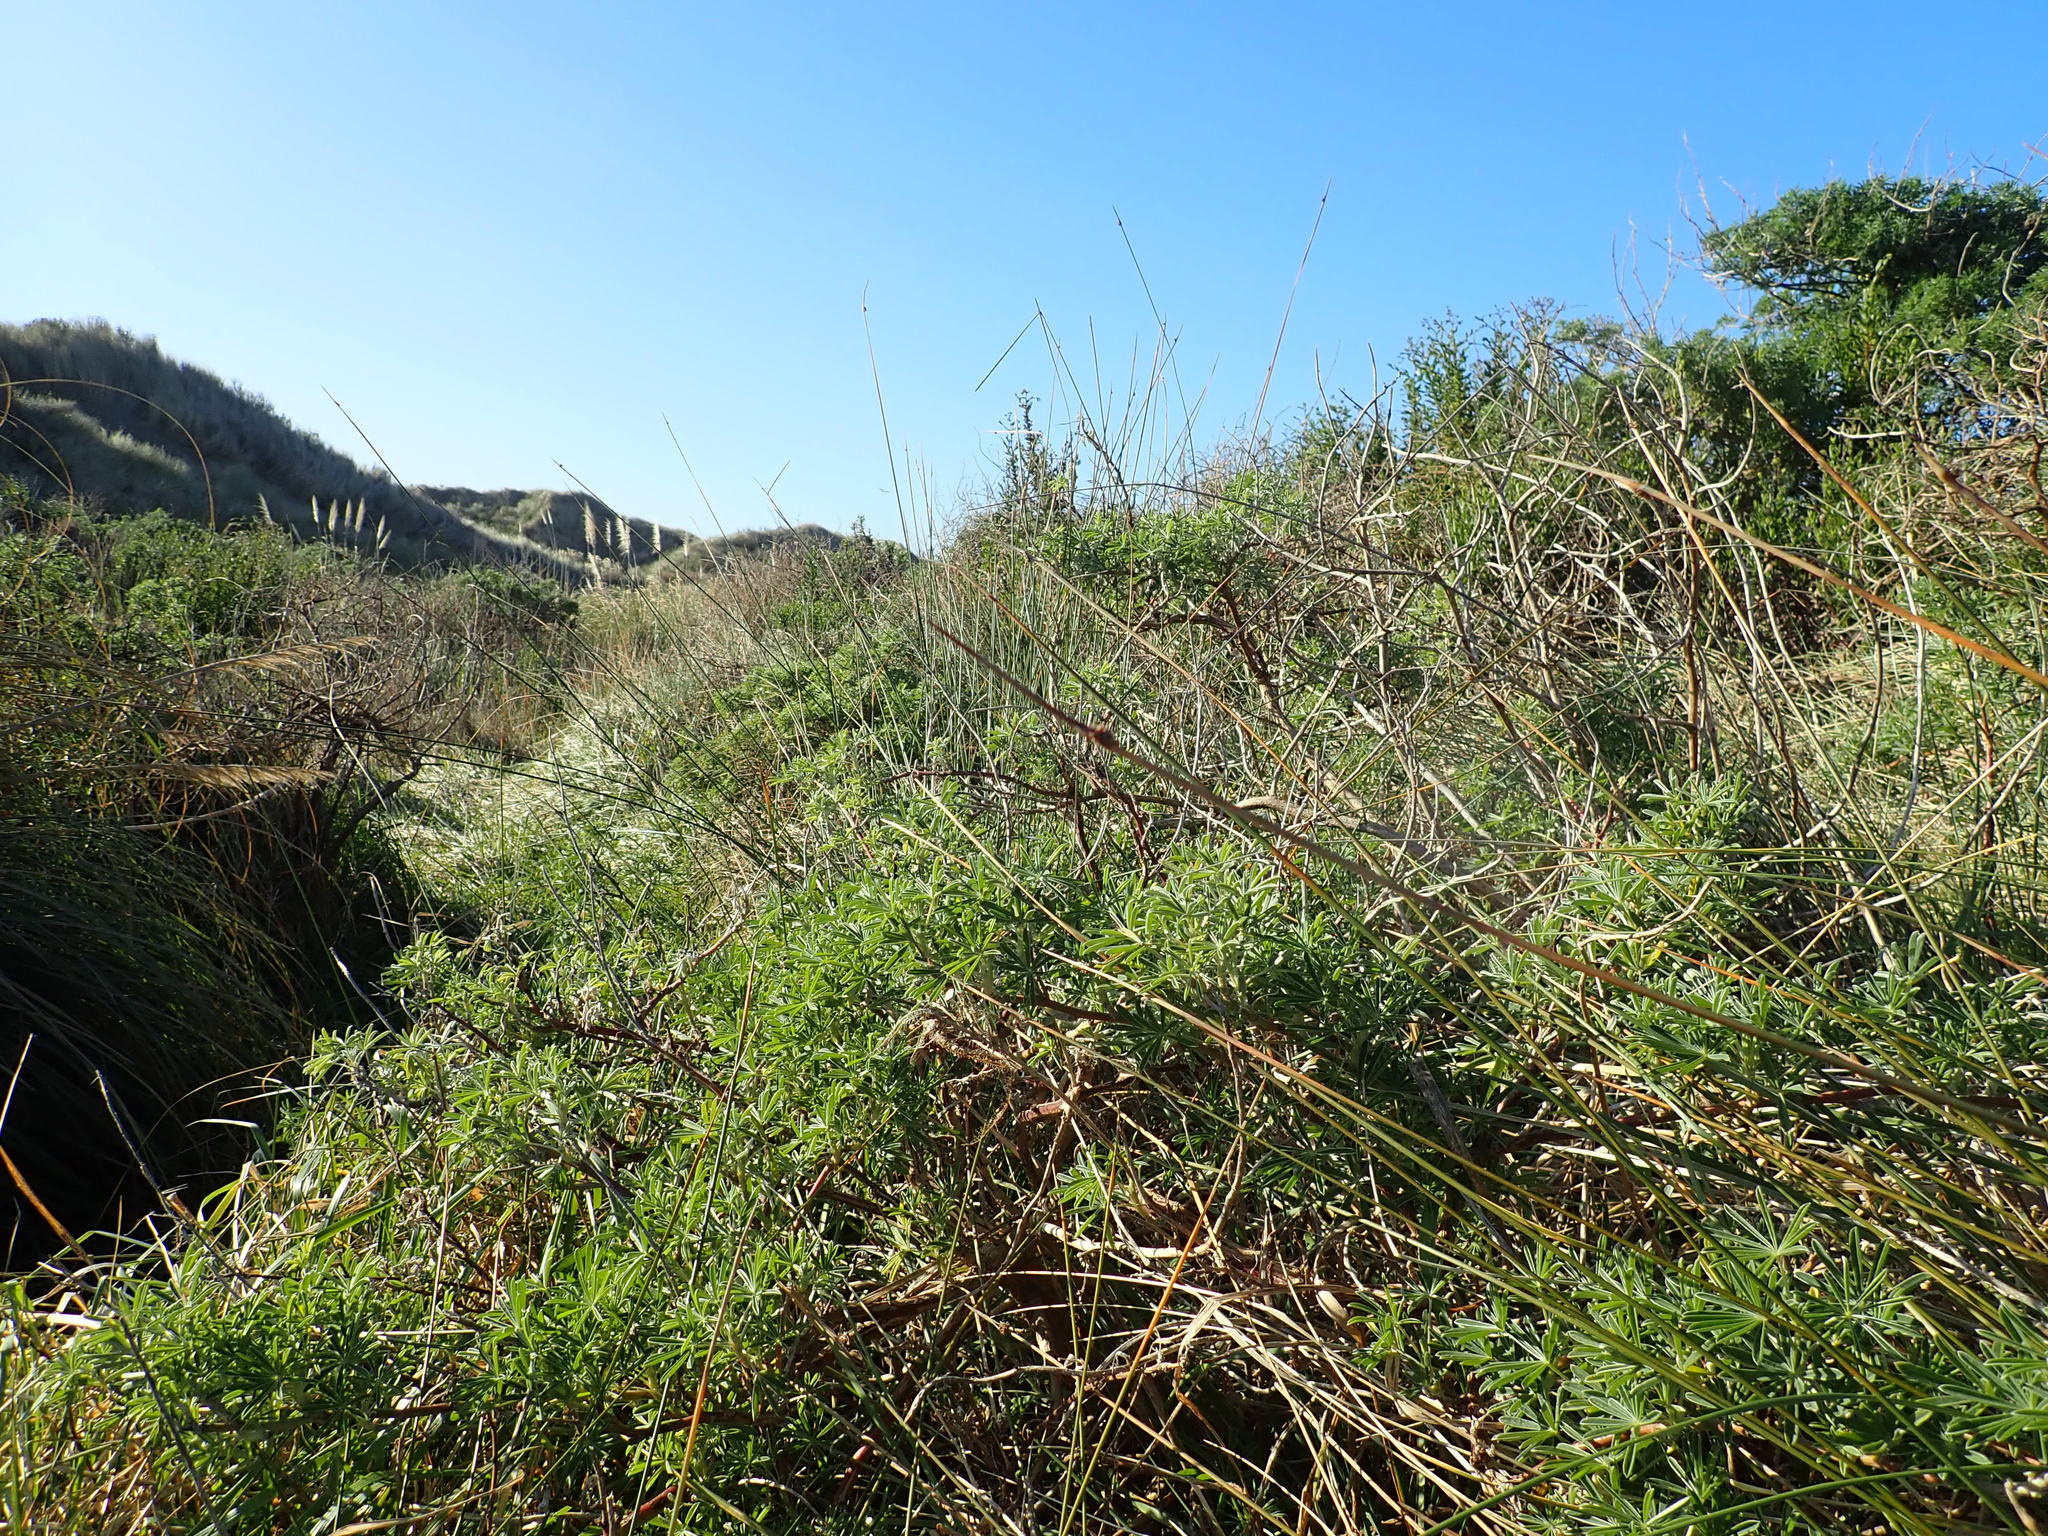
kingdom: Plantae
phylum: Tracheophyta
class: Magnoliopsida
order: Fabales
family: Fabaceae
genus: Lupinus
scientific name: Lupinus arboreus
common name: Yellow bush lupine
